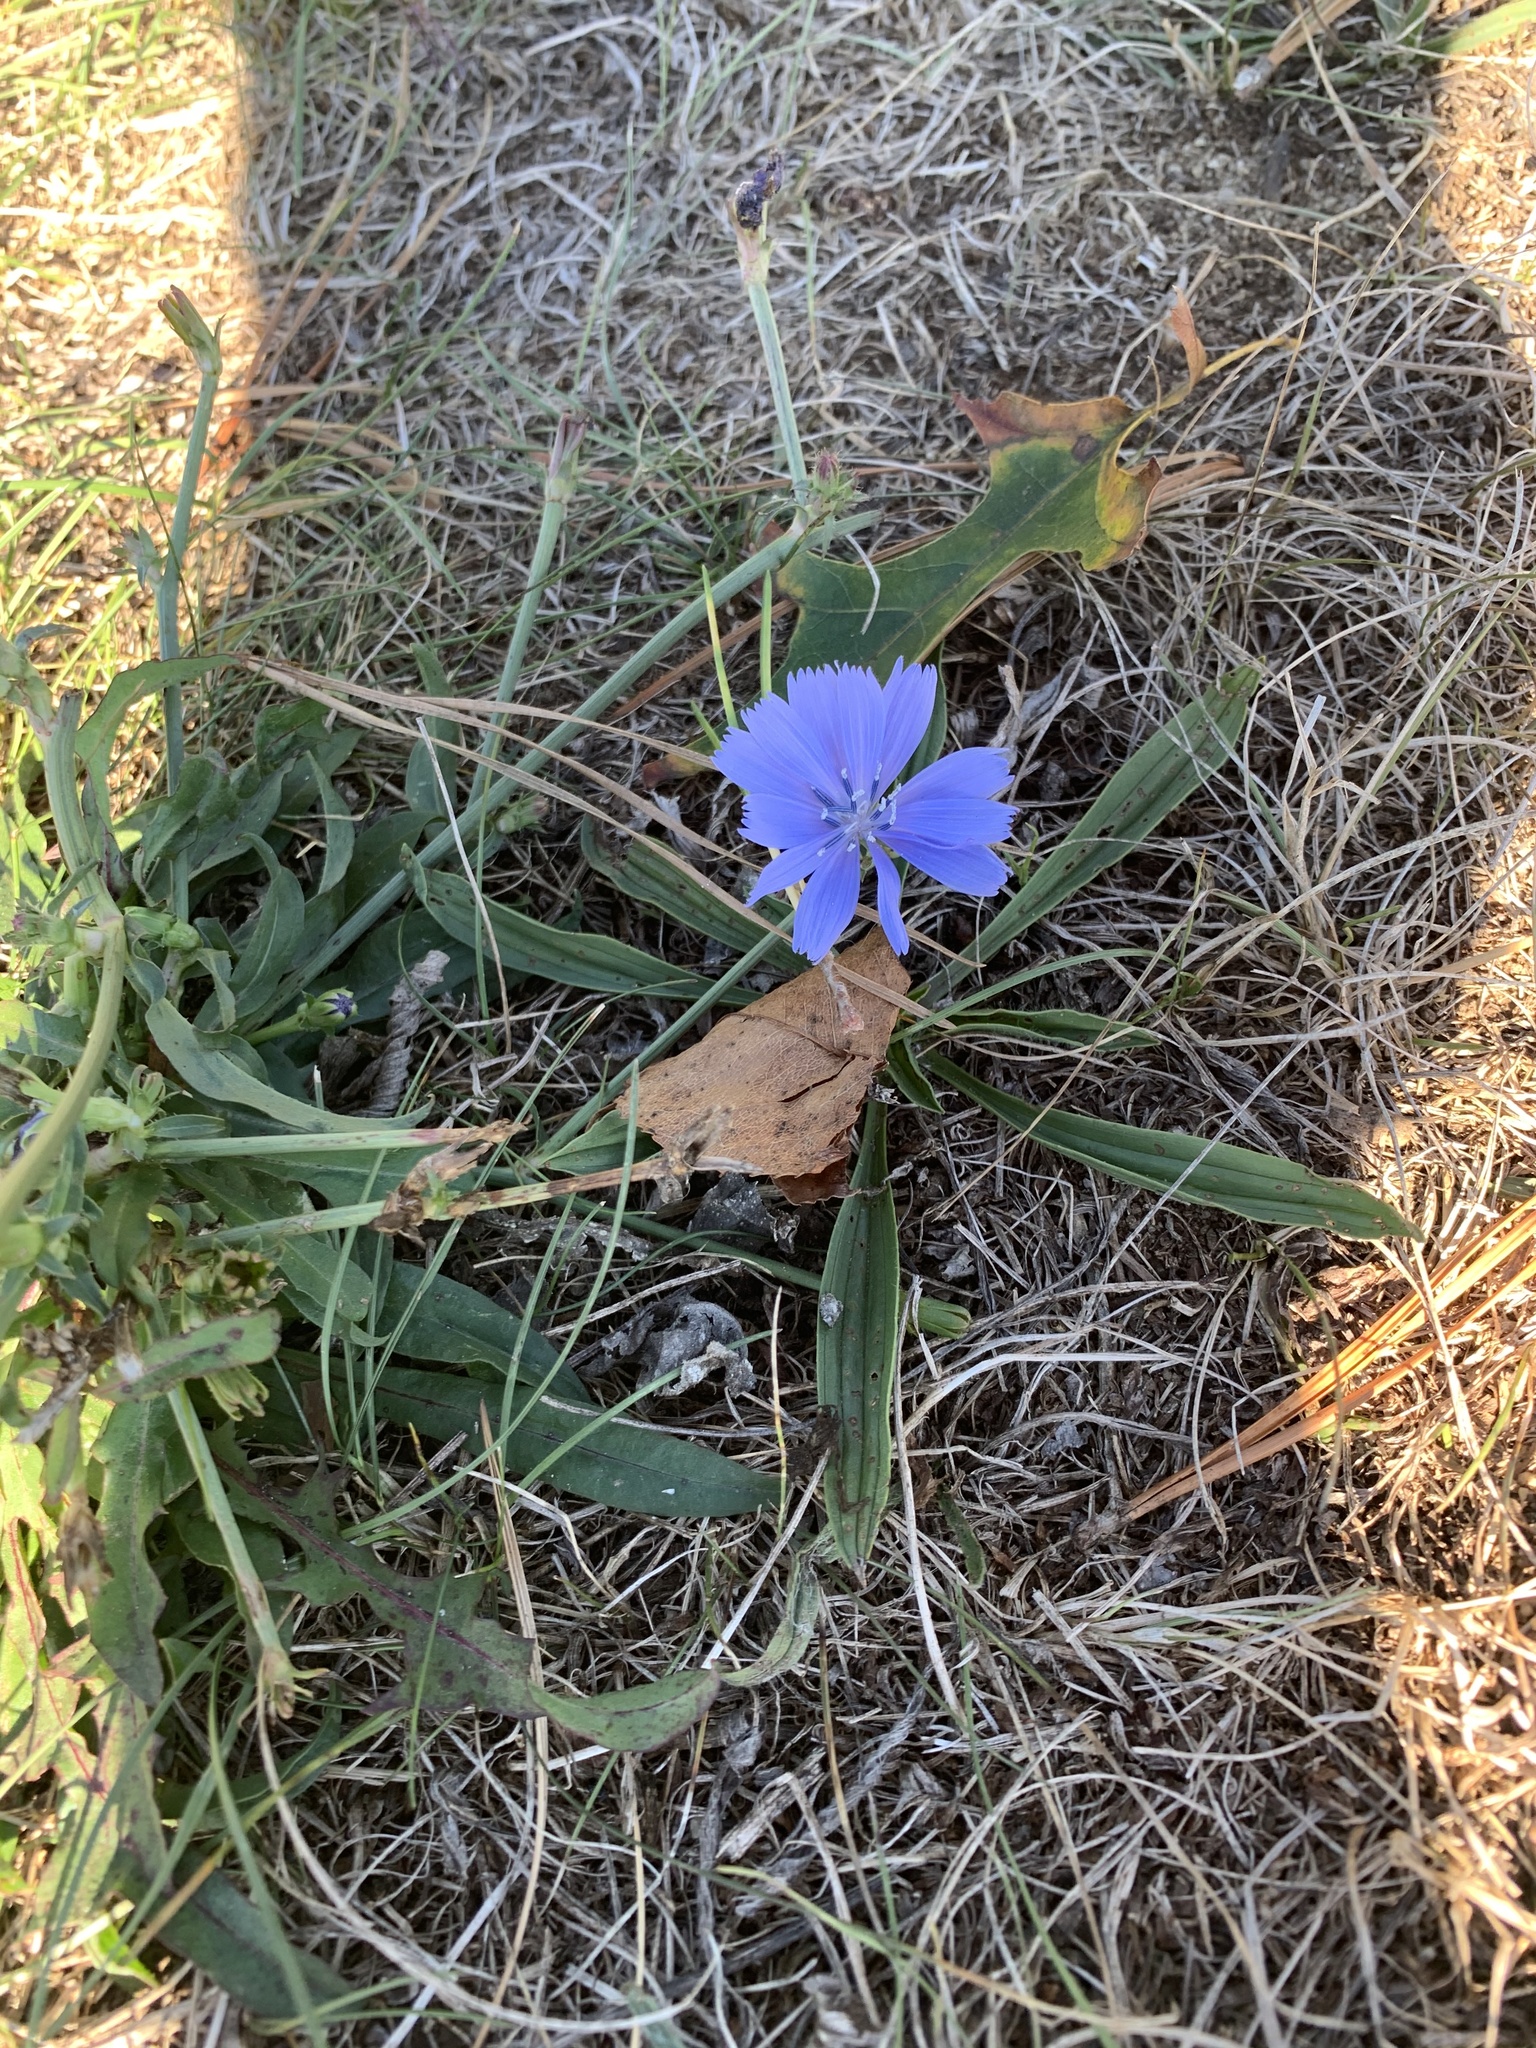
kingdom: Plantae
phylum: Tracheophyta
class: Magnoliopsida
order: Asterales
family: Asteraceae
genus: Cichorium
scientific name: Cichorium intybus
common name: Chicory
